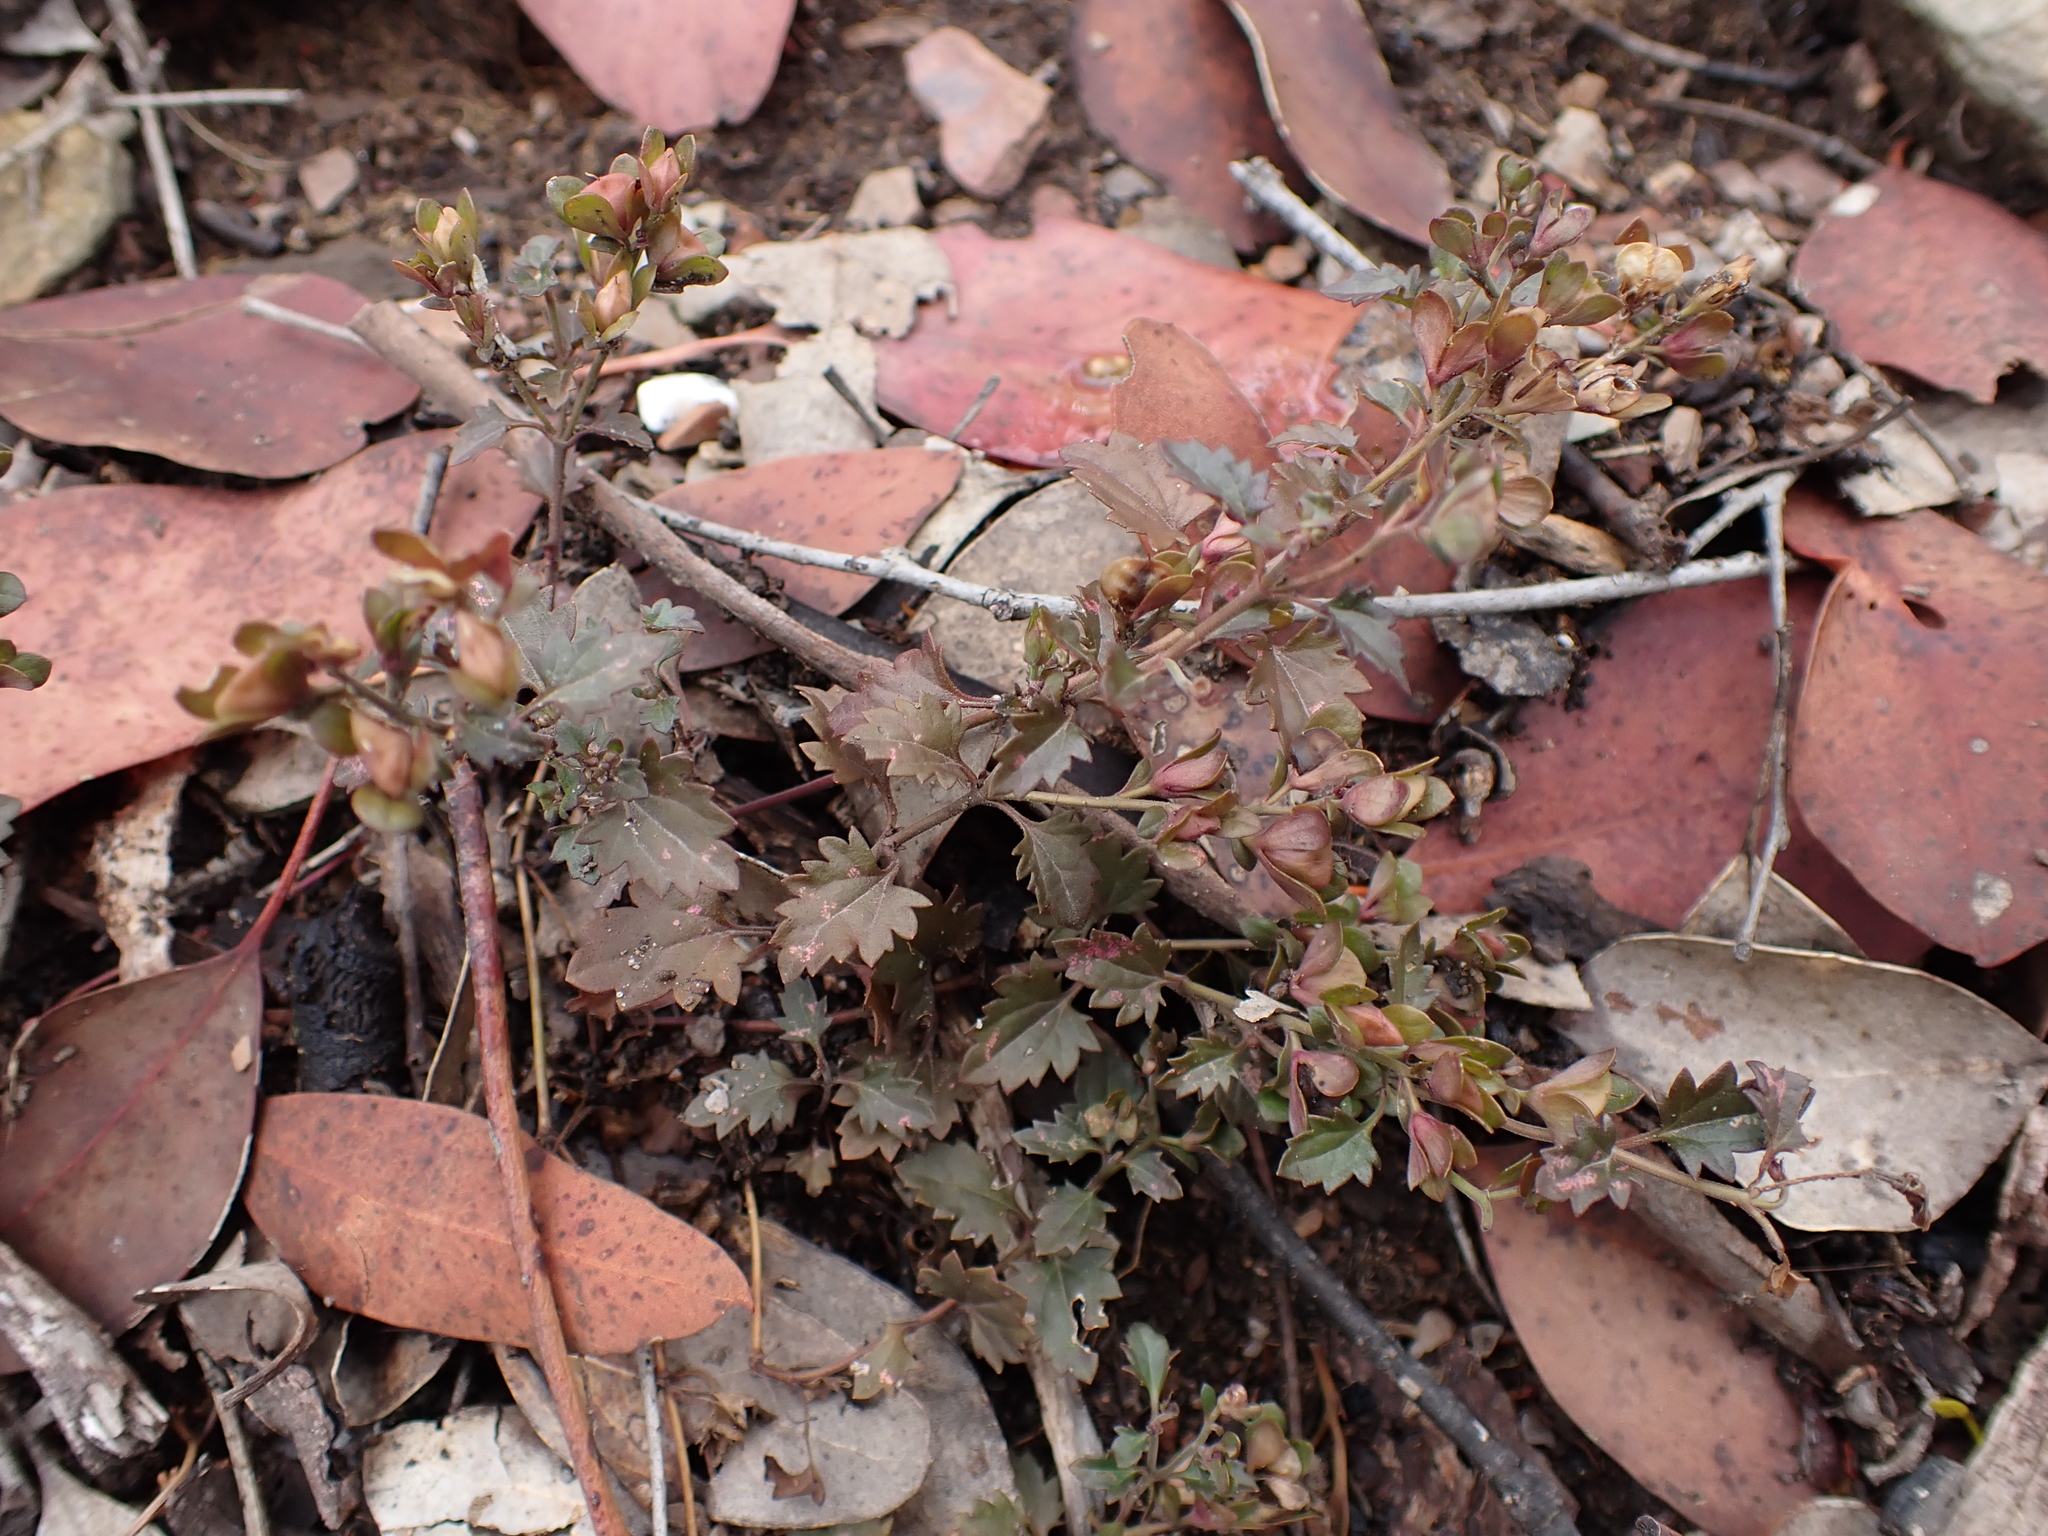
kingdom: Plantae
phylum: Tracheophyta
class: Magnoliopsida
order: Lamiales
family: Plantaginaceae
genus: Veronica
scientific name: Veronica plebeia
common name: Speedwell
